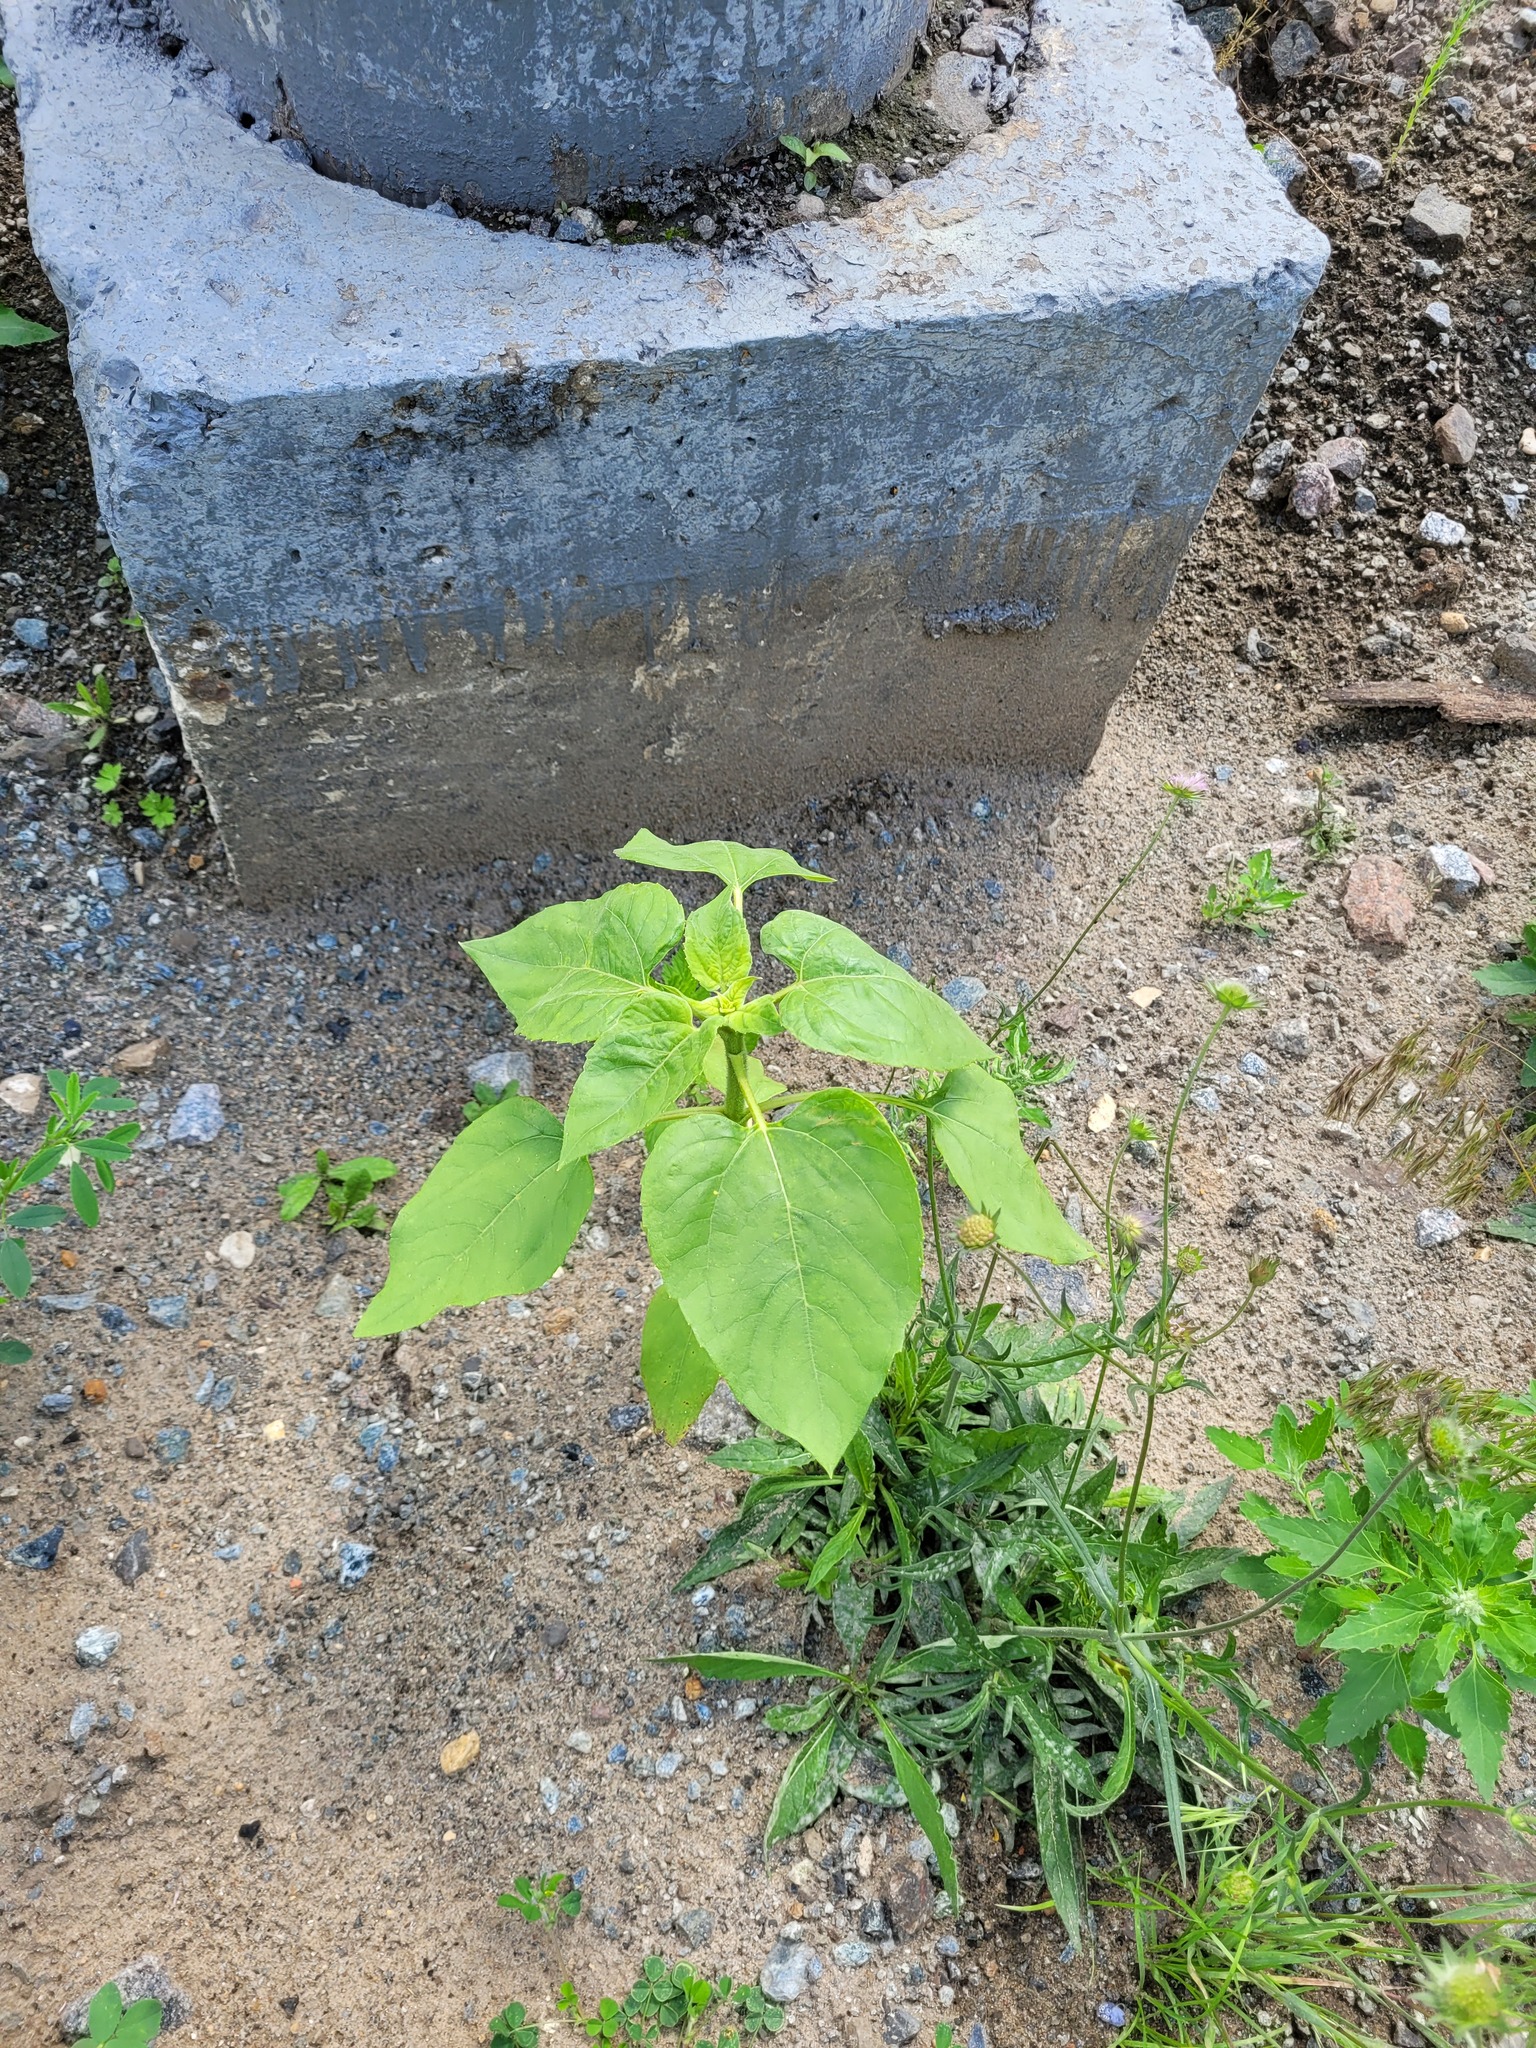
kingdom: Plantae
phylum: Tracheophyta
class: Magnoliopsida
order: Asterales
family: Asteraceae
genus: Helianthus
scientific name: Helianthus annuus
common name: Sunflower
